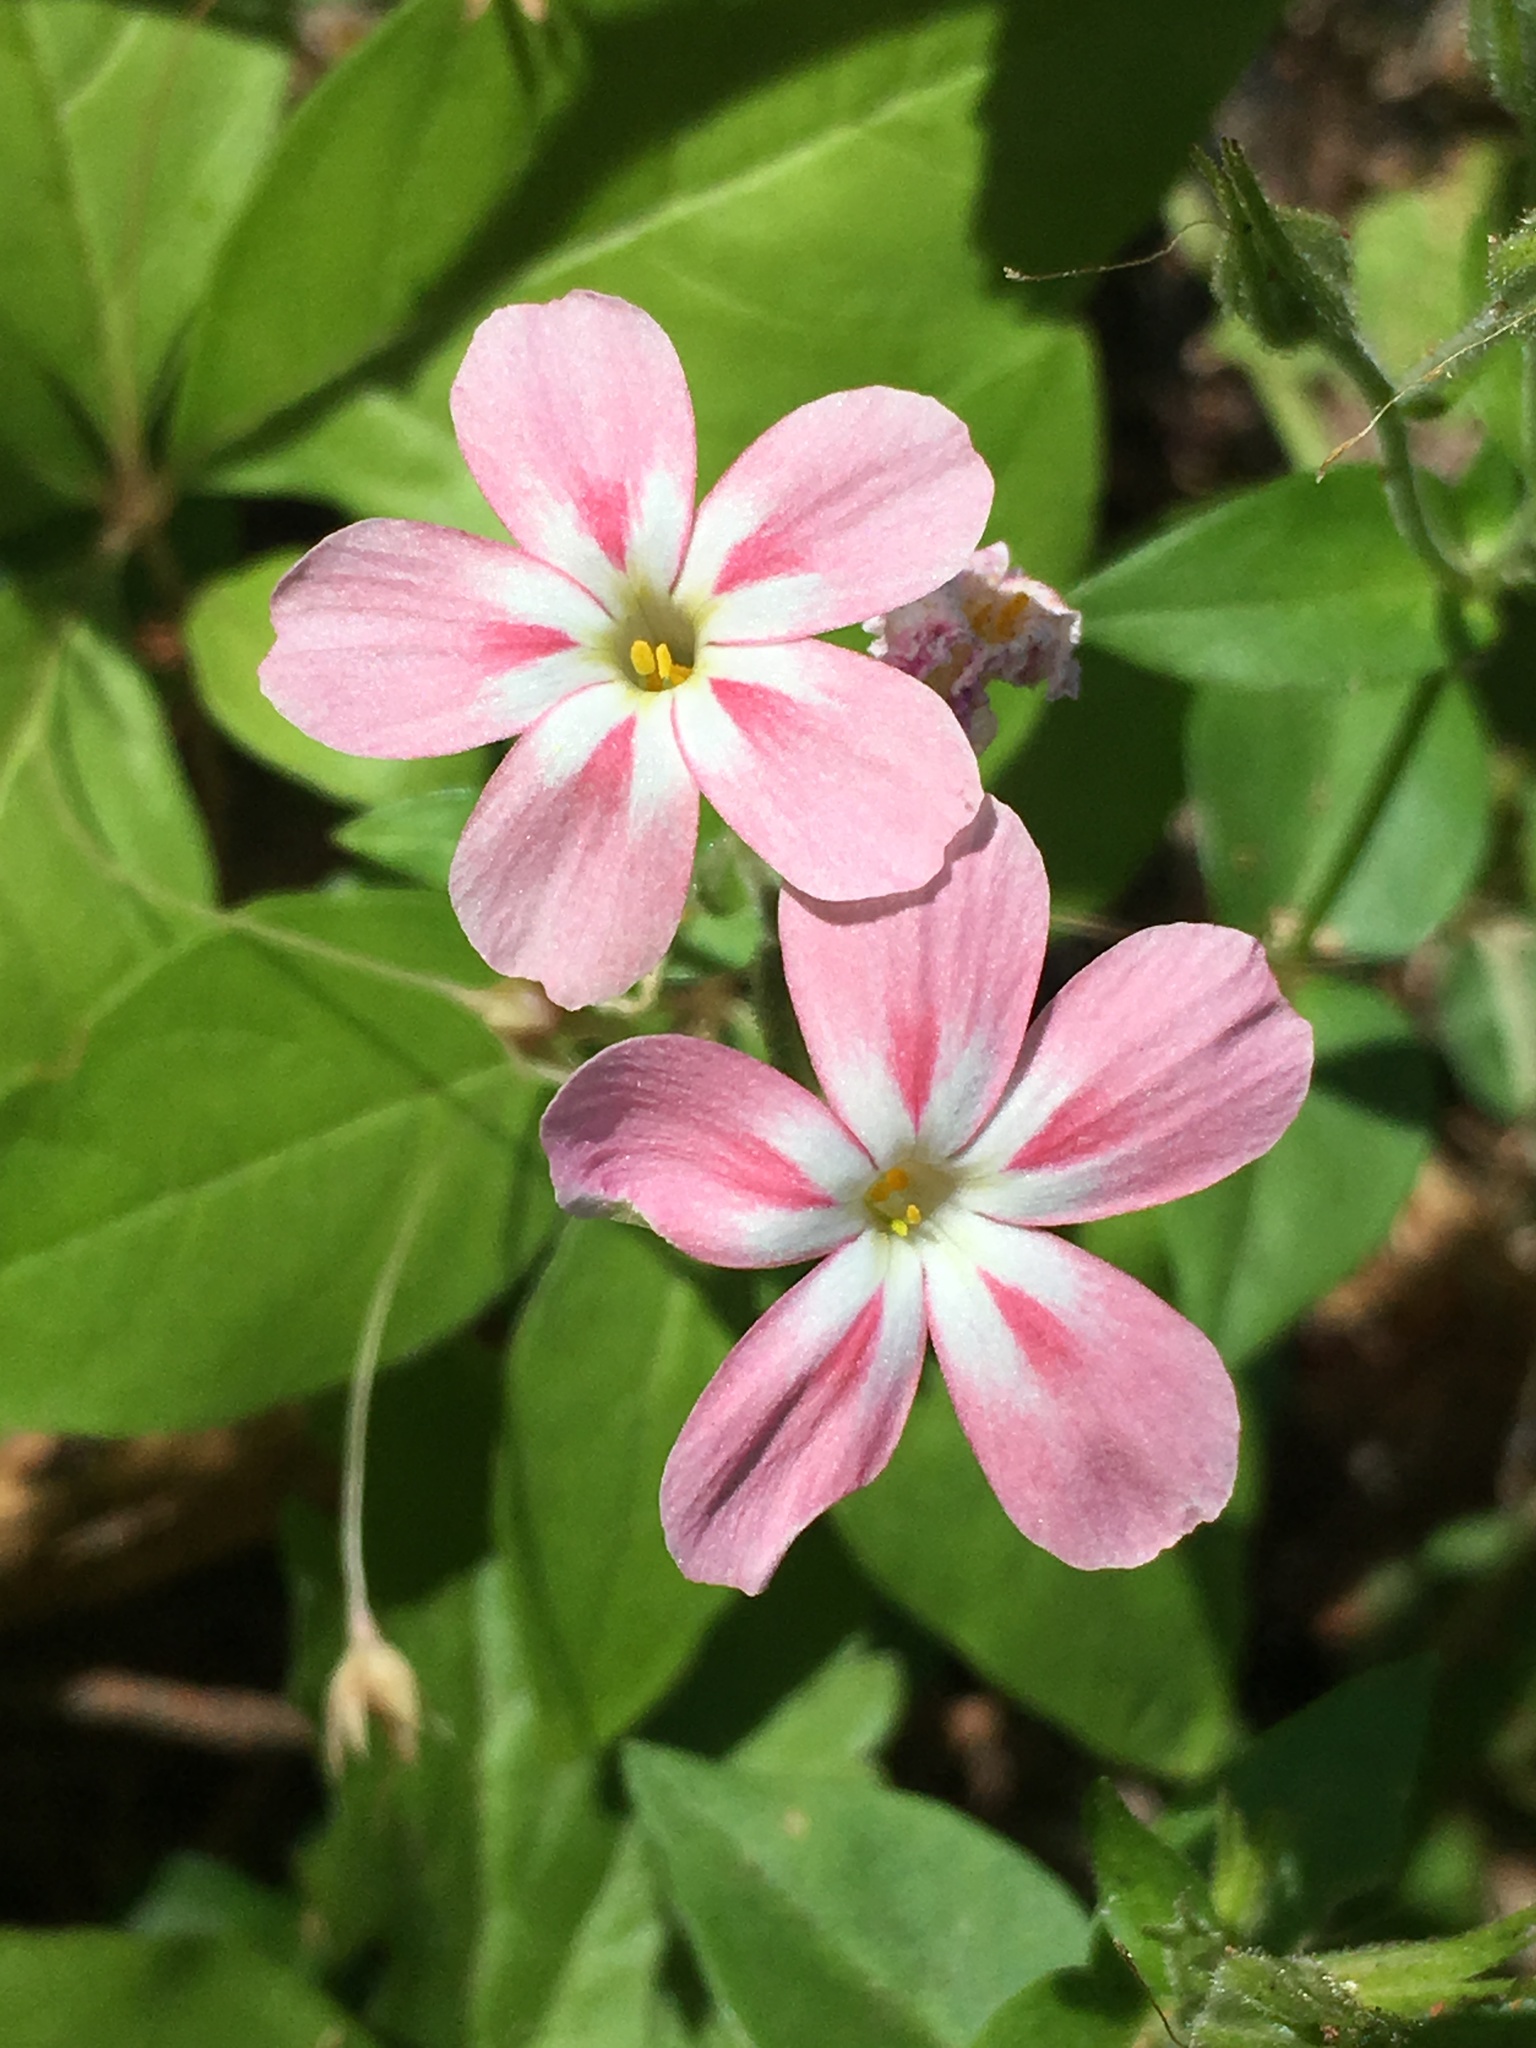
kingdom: Plantae
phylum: Tracheophyta
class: Magnoliopsida
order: Ericales
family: Polemoniaceae
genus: Phlox
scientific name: Phlox adsurgens
